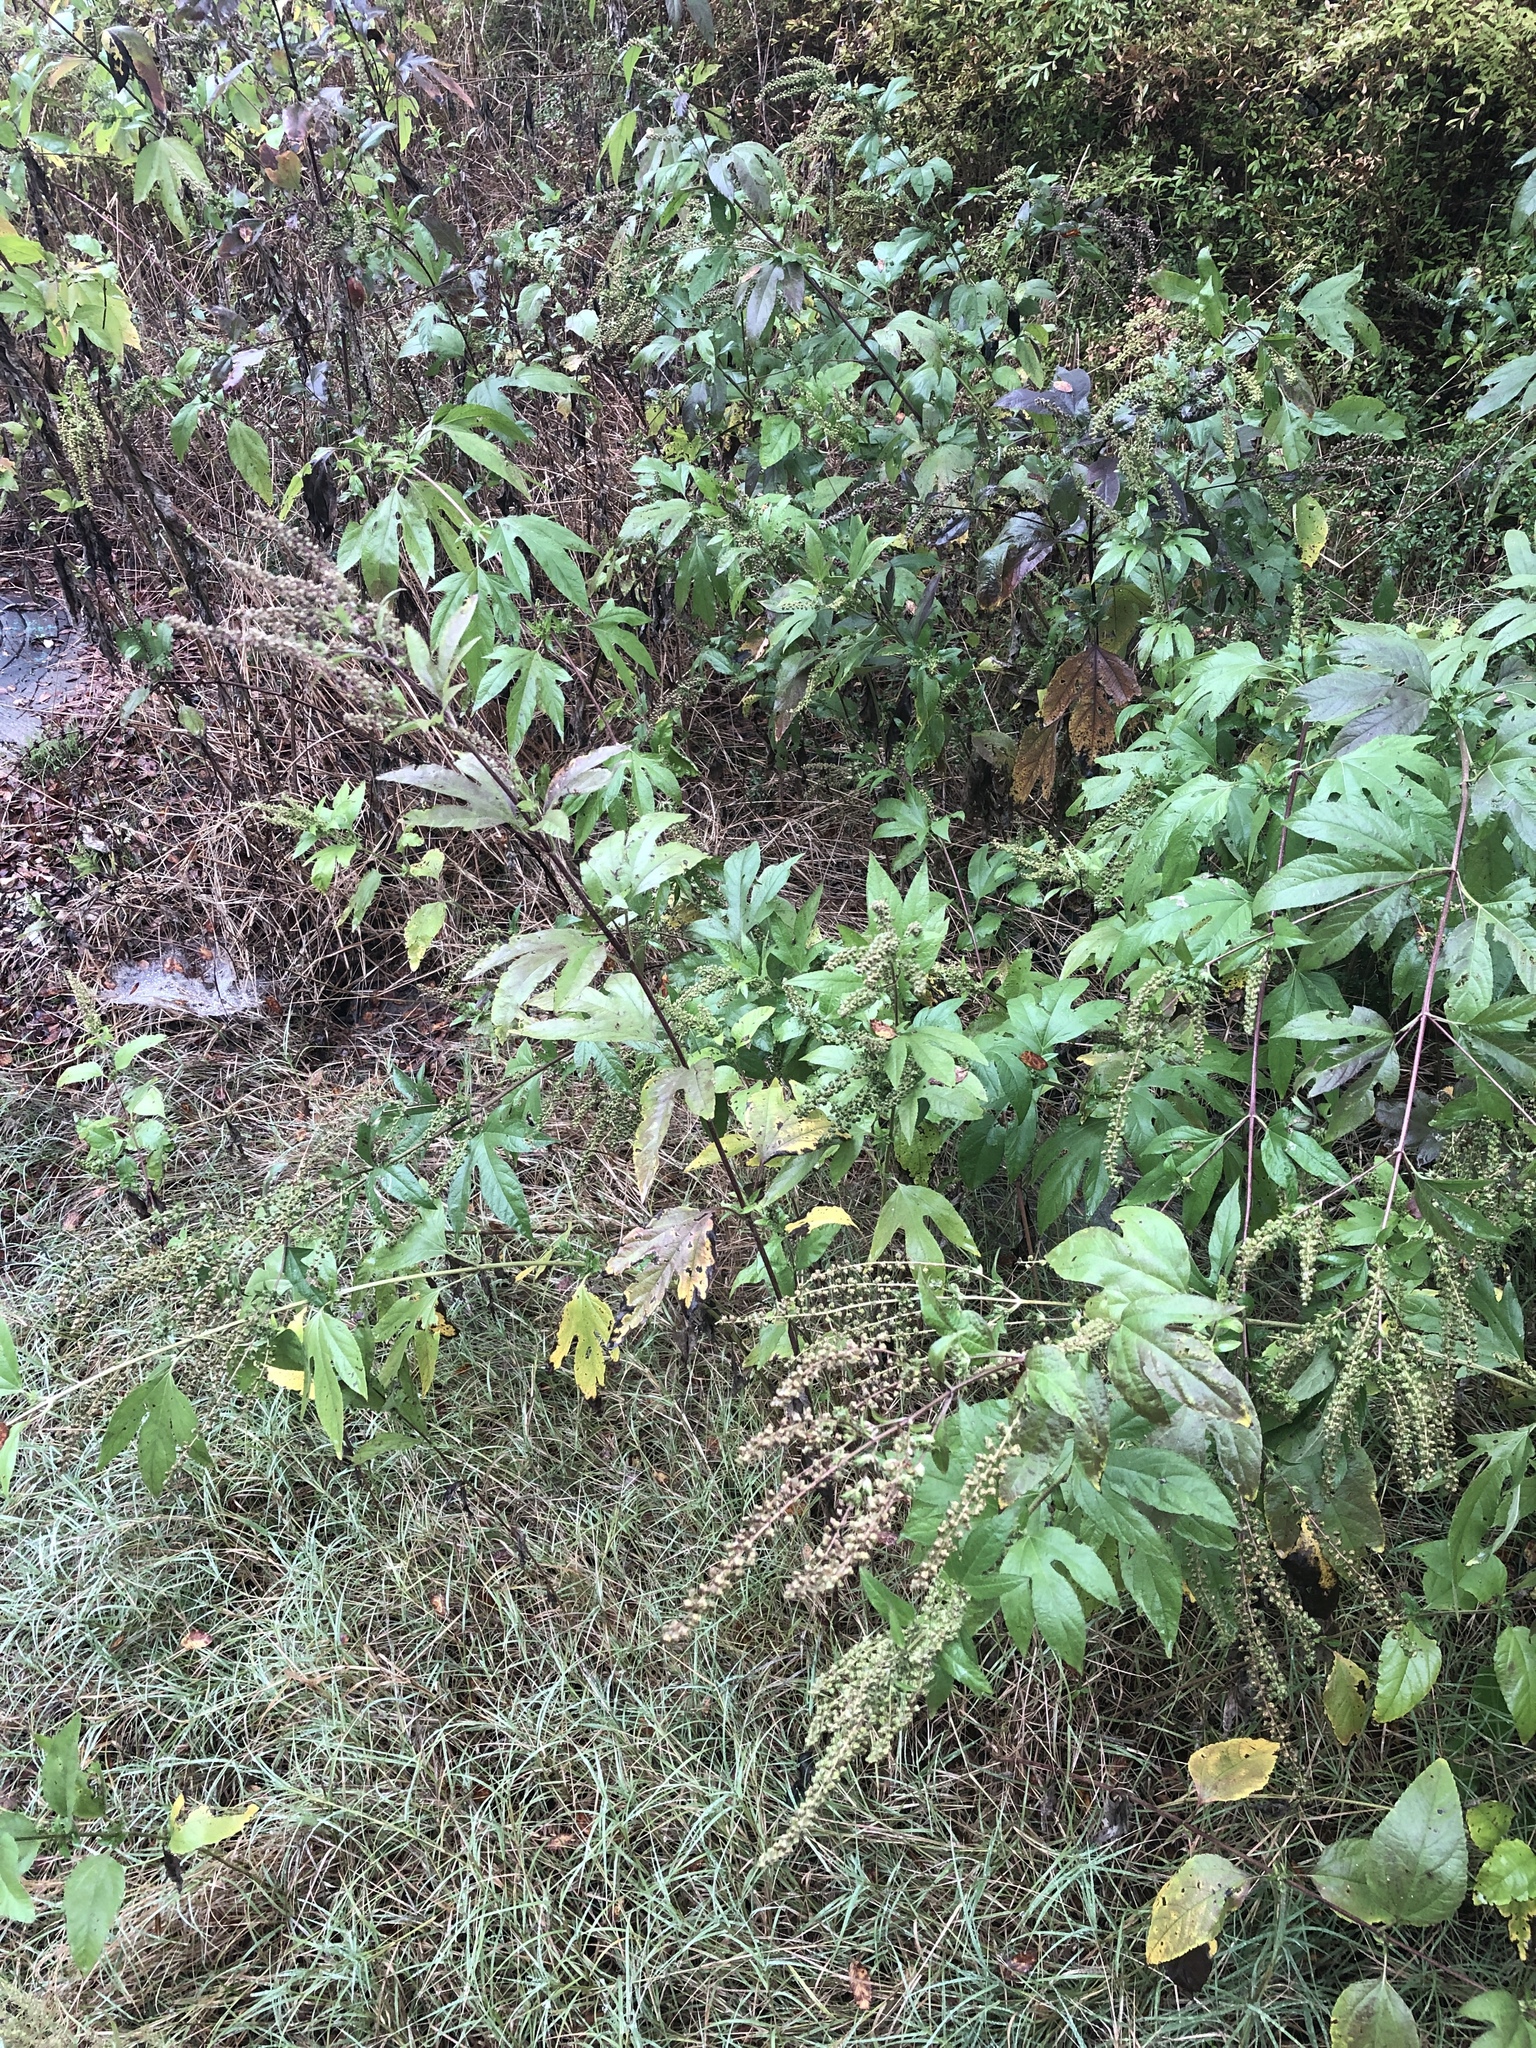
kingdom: Plantae
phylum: Tracheophyta
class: Magnoliopsida
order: Asterales
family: Asteraceae
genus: Ambrosia
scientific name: Ambrosia trifida
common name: Giant ragweed
